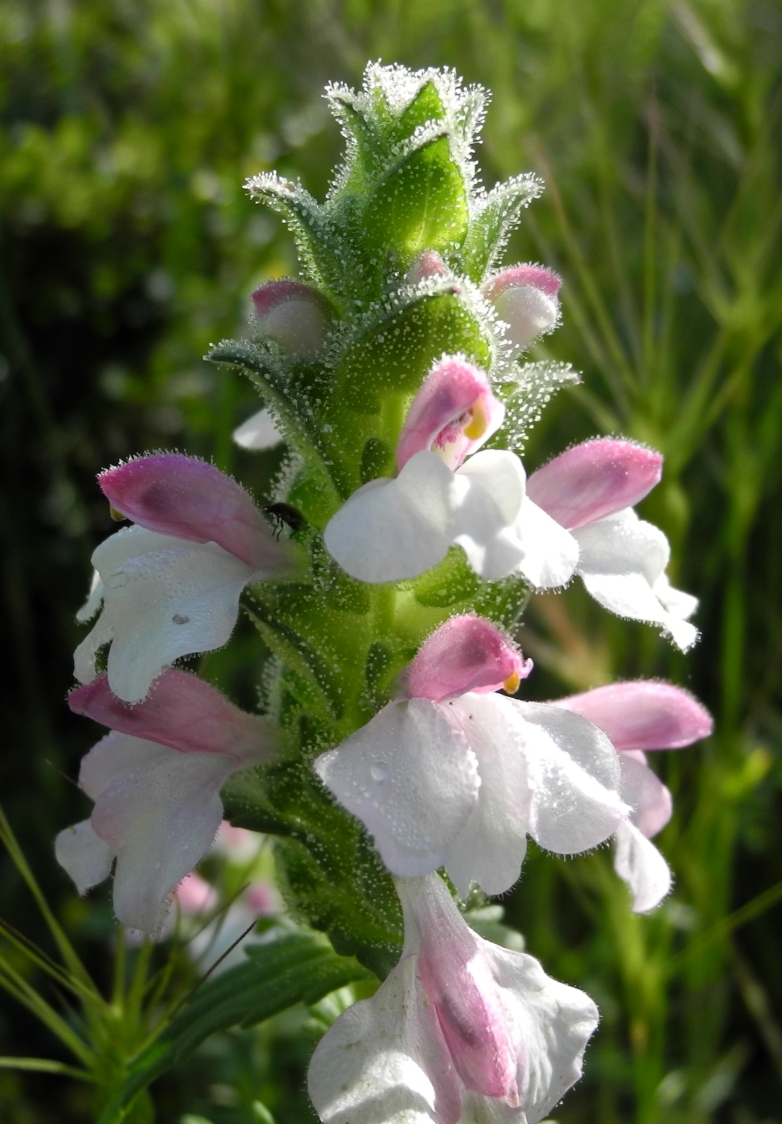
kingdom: Plantae
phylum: Tracheophyta
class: Magnoliopsida
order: Lamiales
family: Orobanchaceae
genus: Bellardia
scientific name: Bellardia trixago
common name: Mediterranean lineseed
